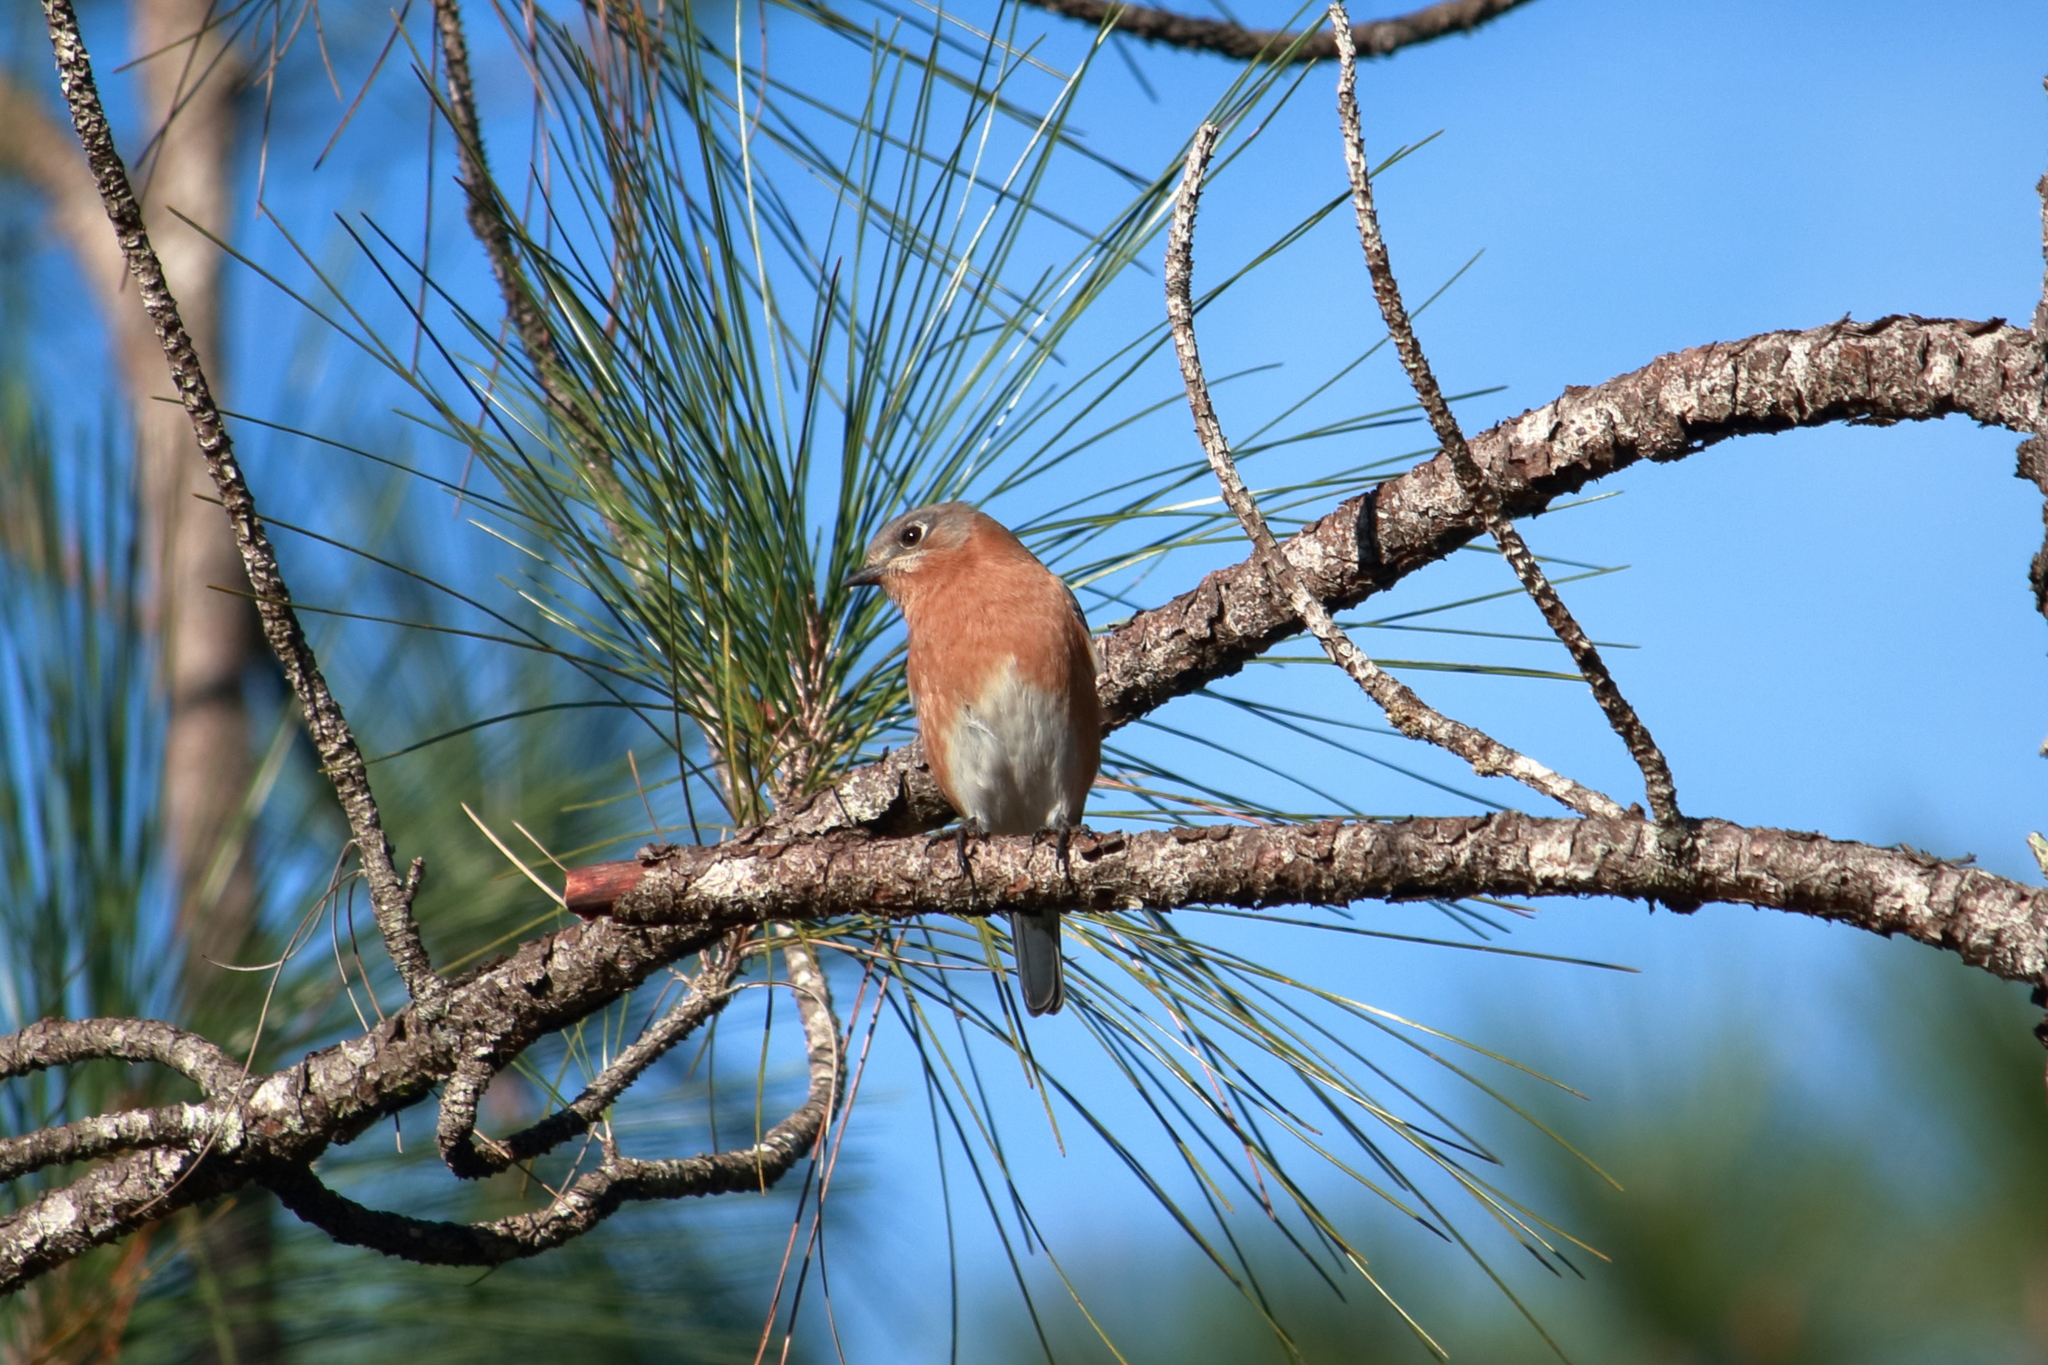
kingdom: Animalia
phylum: Chordata
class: Aves
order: Passeriformes
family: Turdidae
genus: Sialia
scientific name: Sialia sialis
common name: Eastern bluebird
